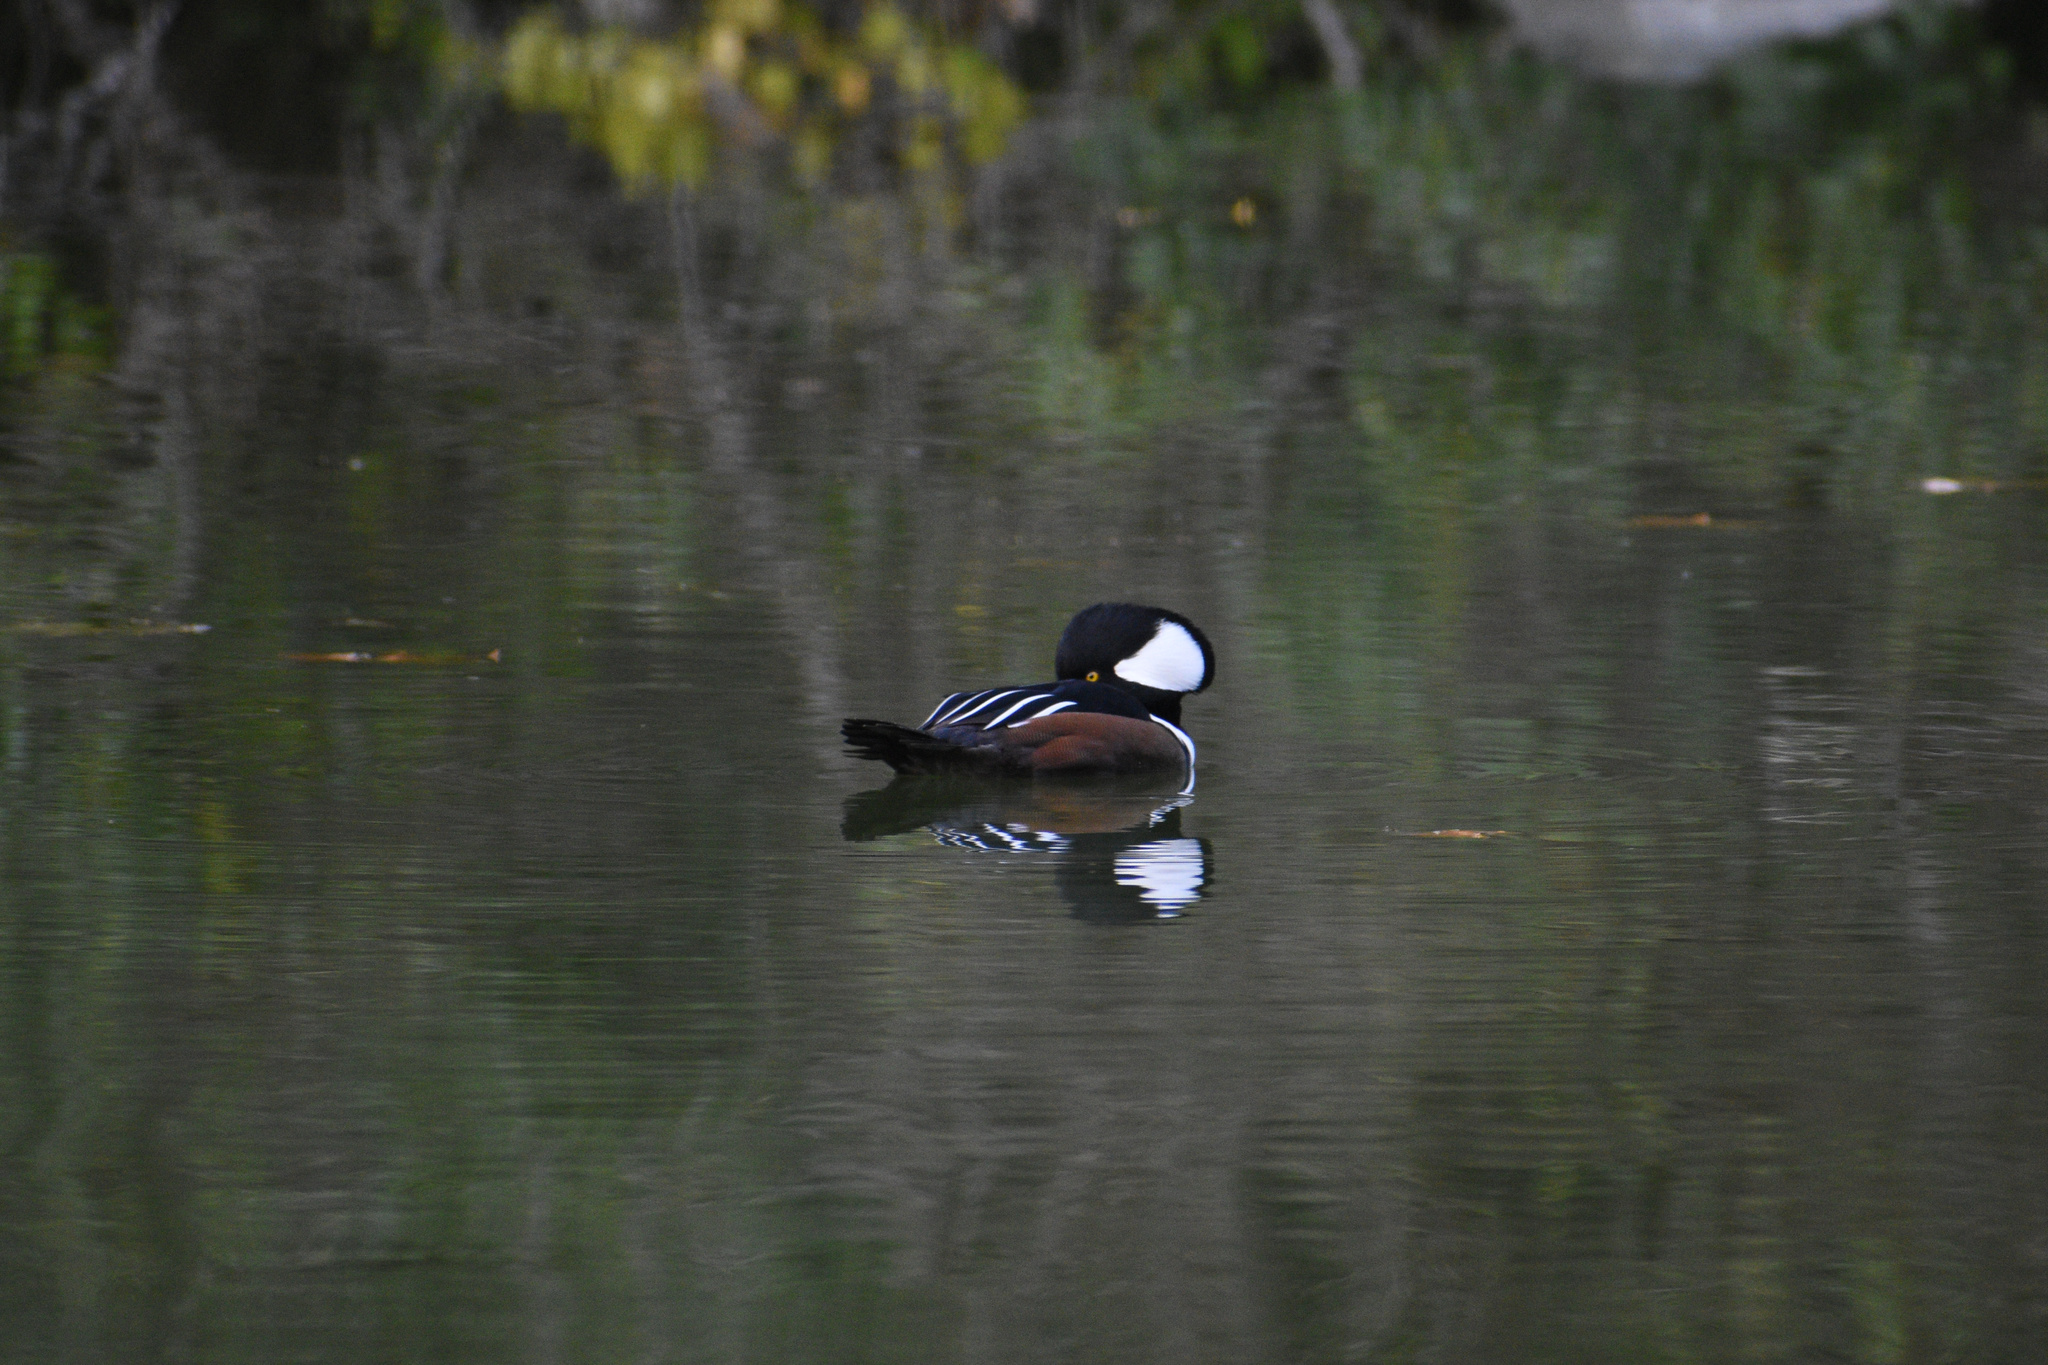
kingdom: Animalia
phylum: Chordata
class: Aves
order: Anseriformes
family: Anatidae
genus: Lophodytes
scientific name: Lophodytes cucullatus
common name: Hooded merganser
